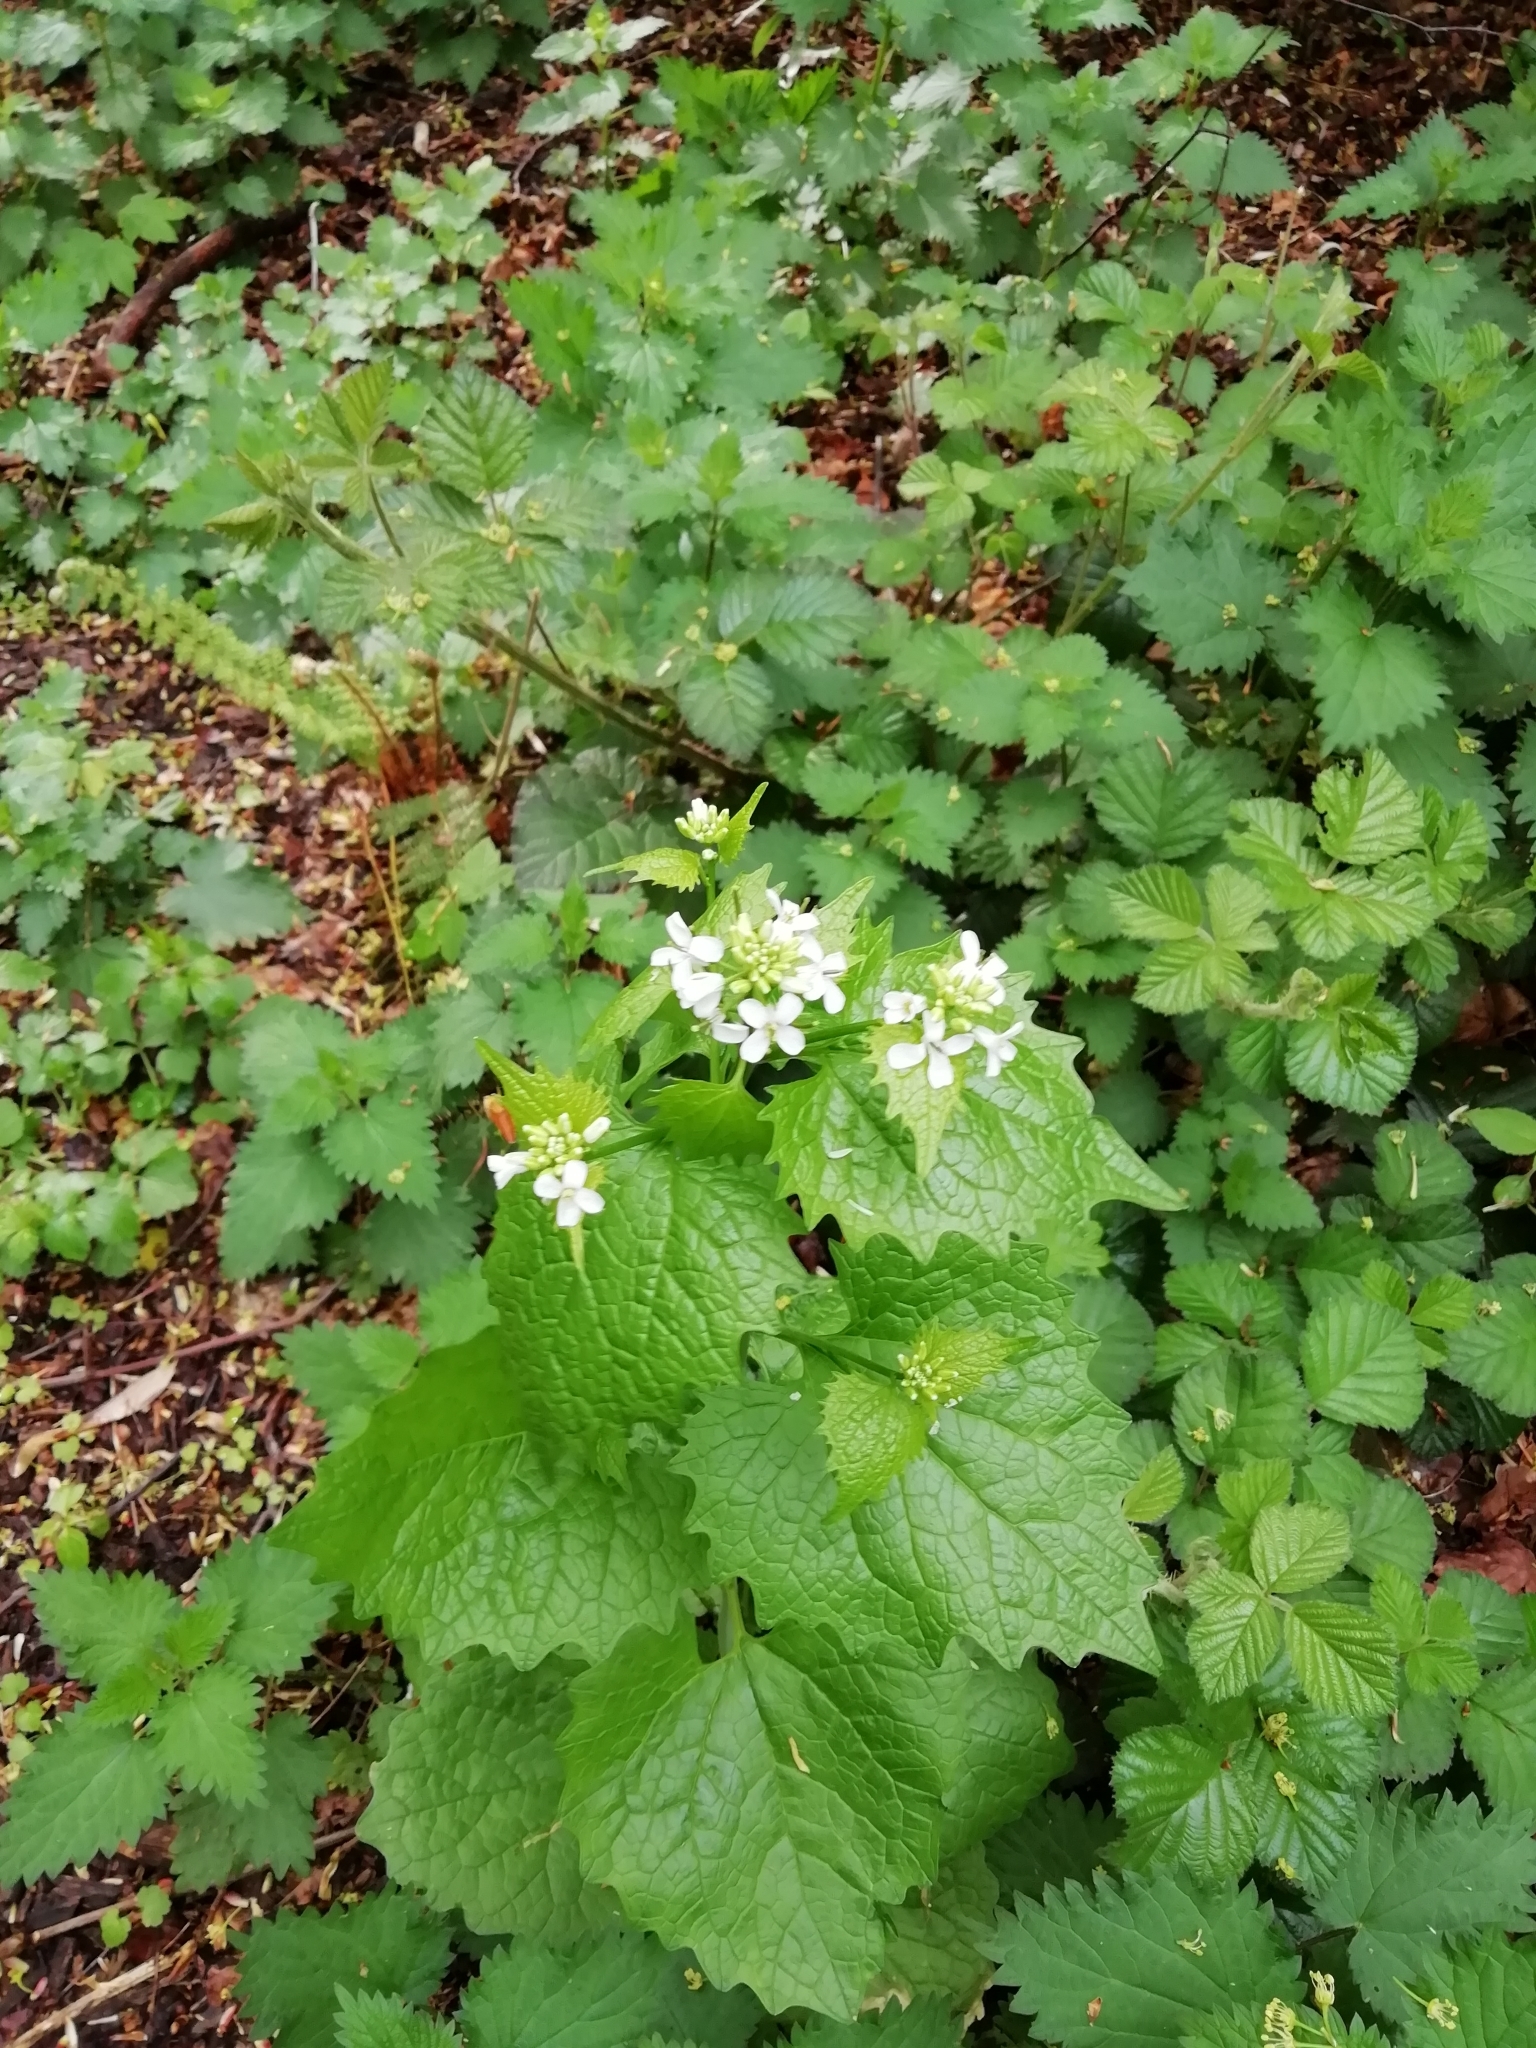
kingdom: Plantae
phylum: Tracheophyta
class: Magnoliopsida
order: Brassicales
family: Brassicaceae
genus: Alliaria
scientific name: Alliaria petiolata
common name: Garlic mustard
